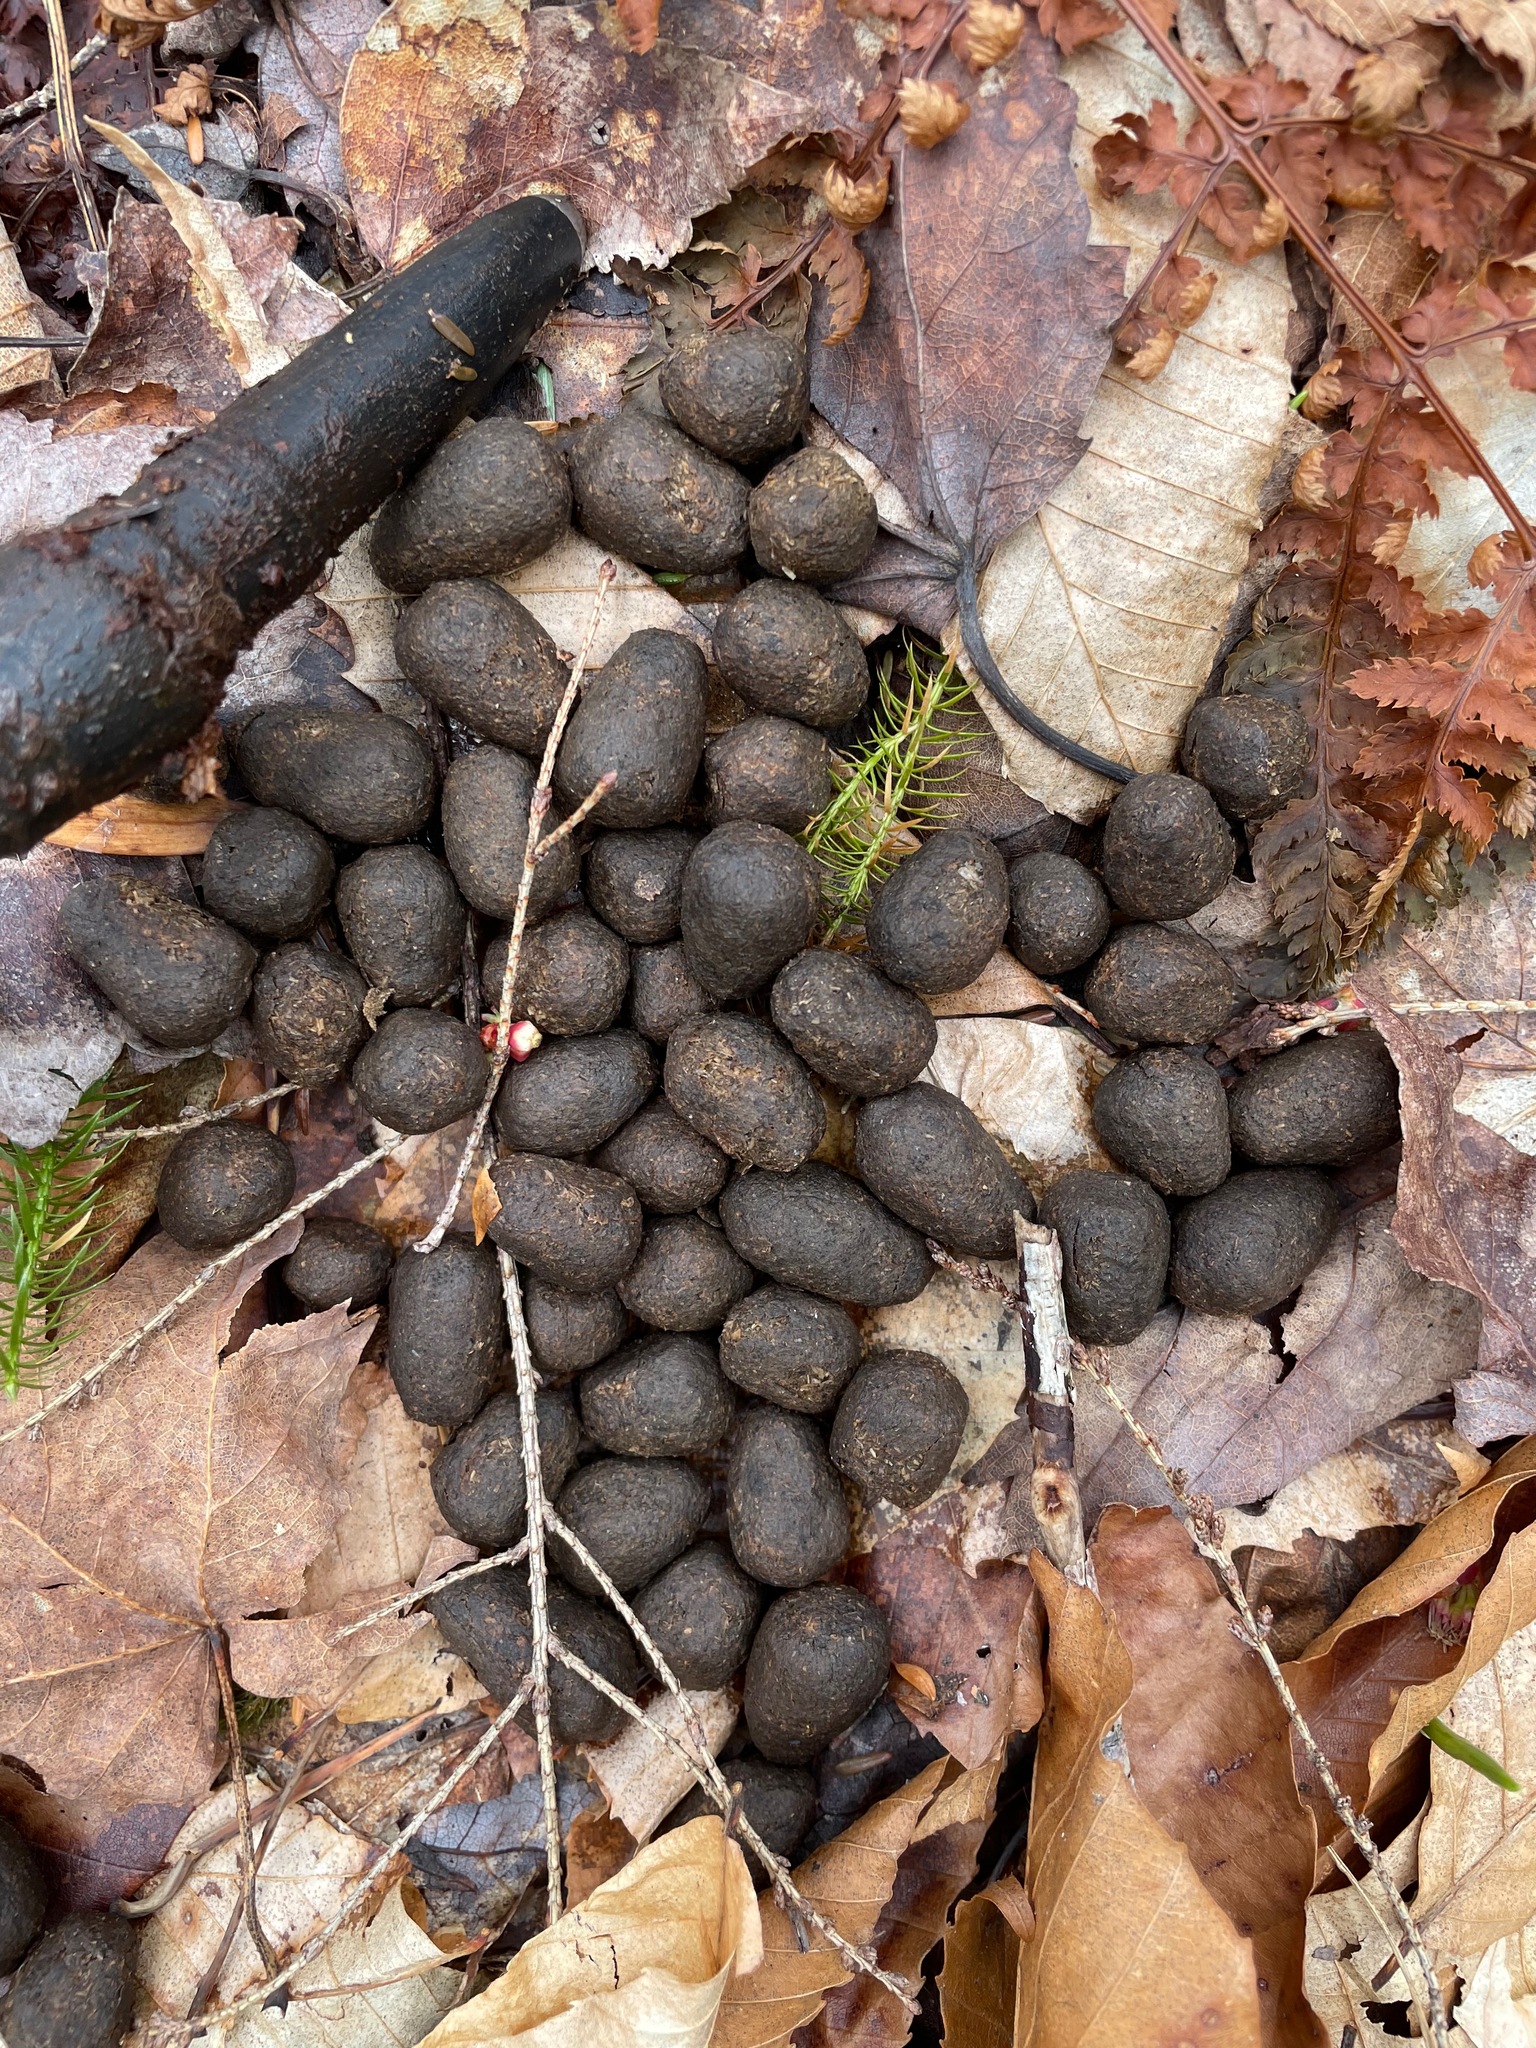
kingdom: Animalia
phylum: Chordata
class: Mammalia
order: Artiodactyla
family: Cervidae
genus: Odocoileus
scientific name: Odocoileus virginianus
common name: White-tailed deer
